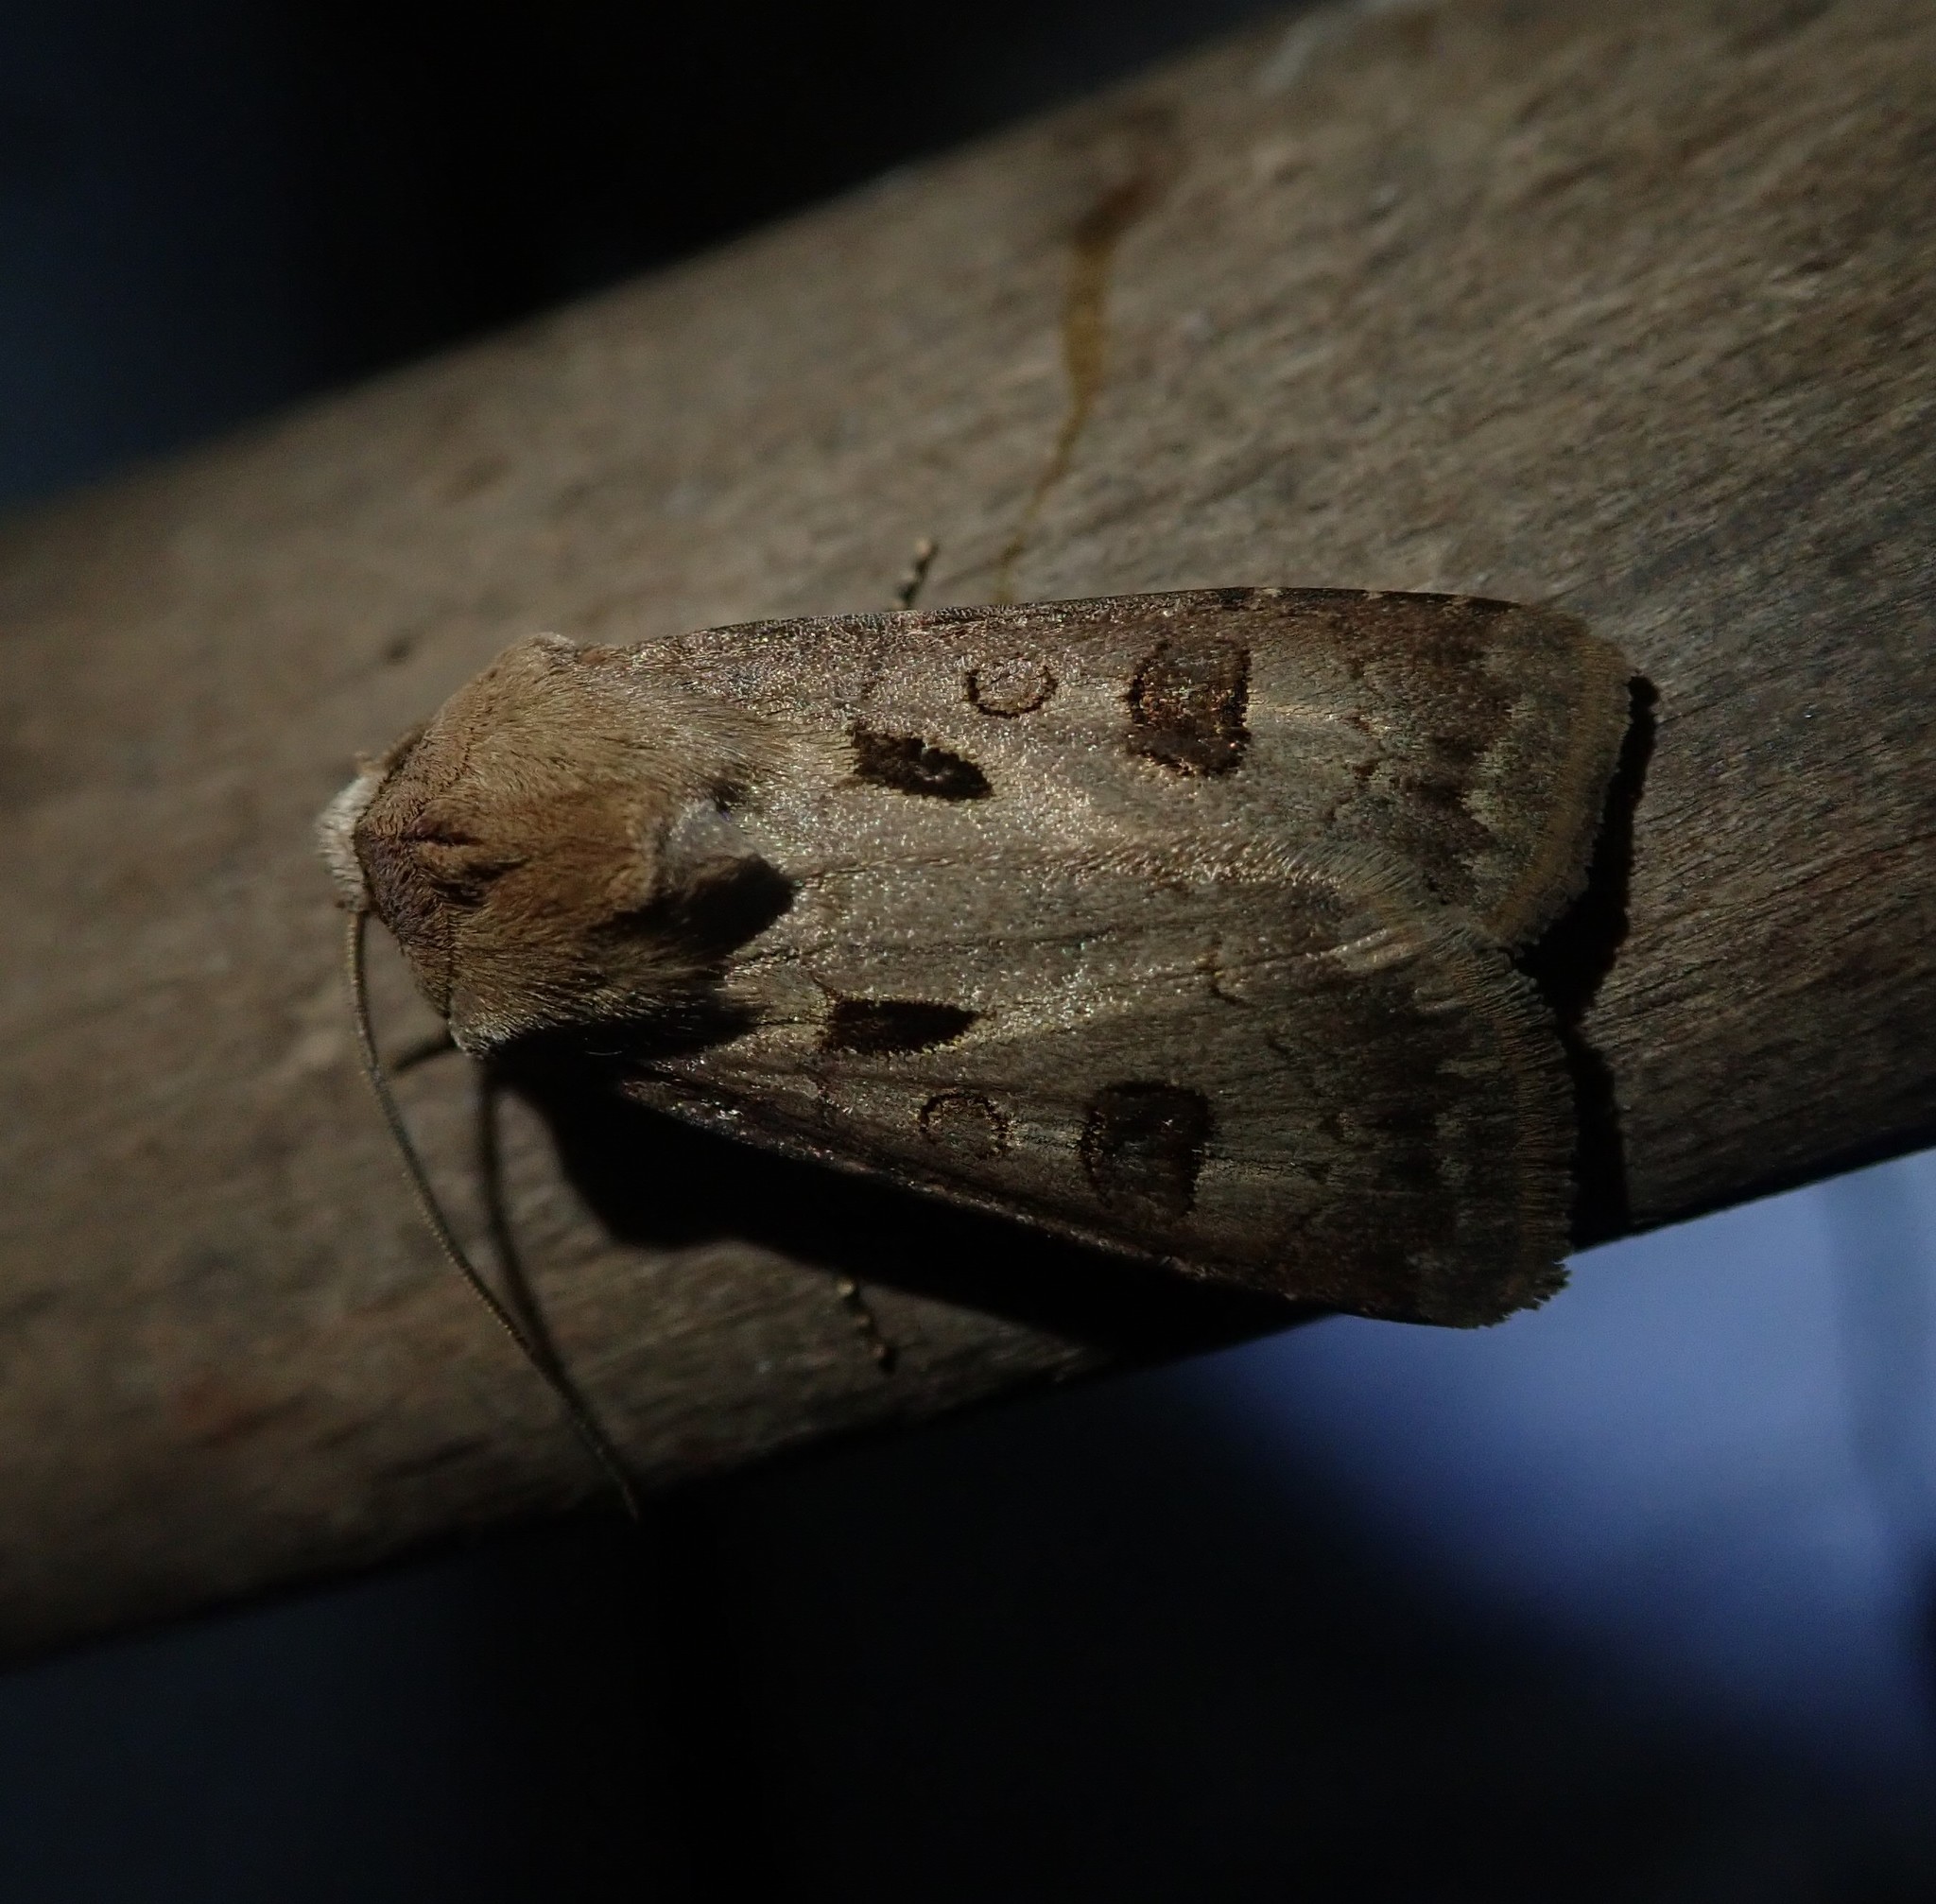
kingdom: Animalia
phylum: Arthropoda
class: Insecta
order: Lepidoptera
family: Noctuidae
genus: Agrotis
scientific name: Agrotis exclamationis
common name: Heart and dart
